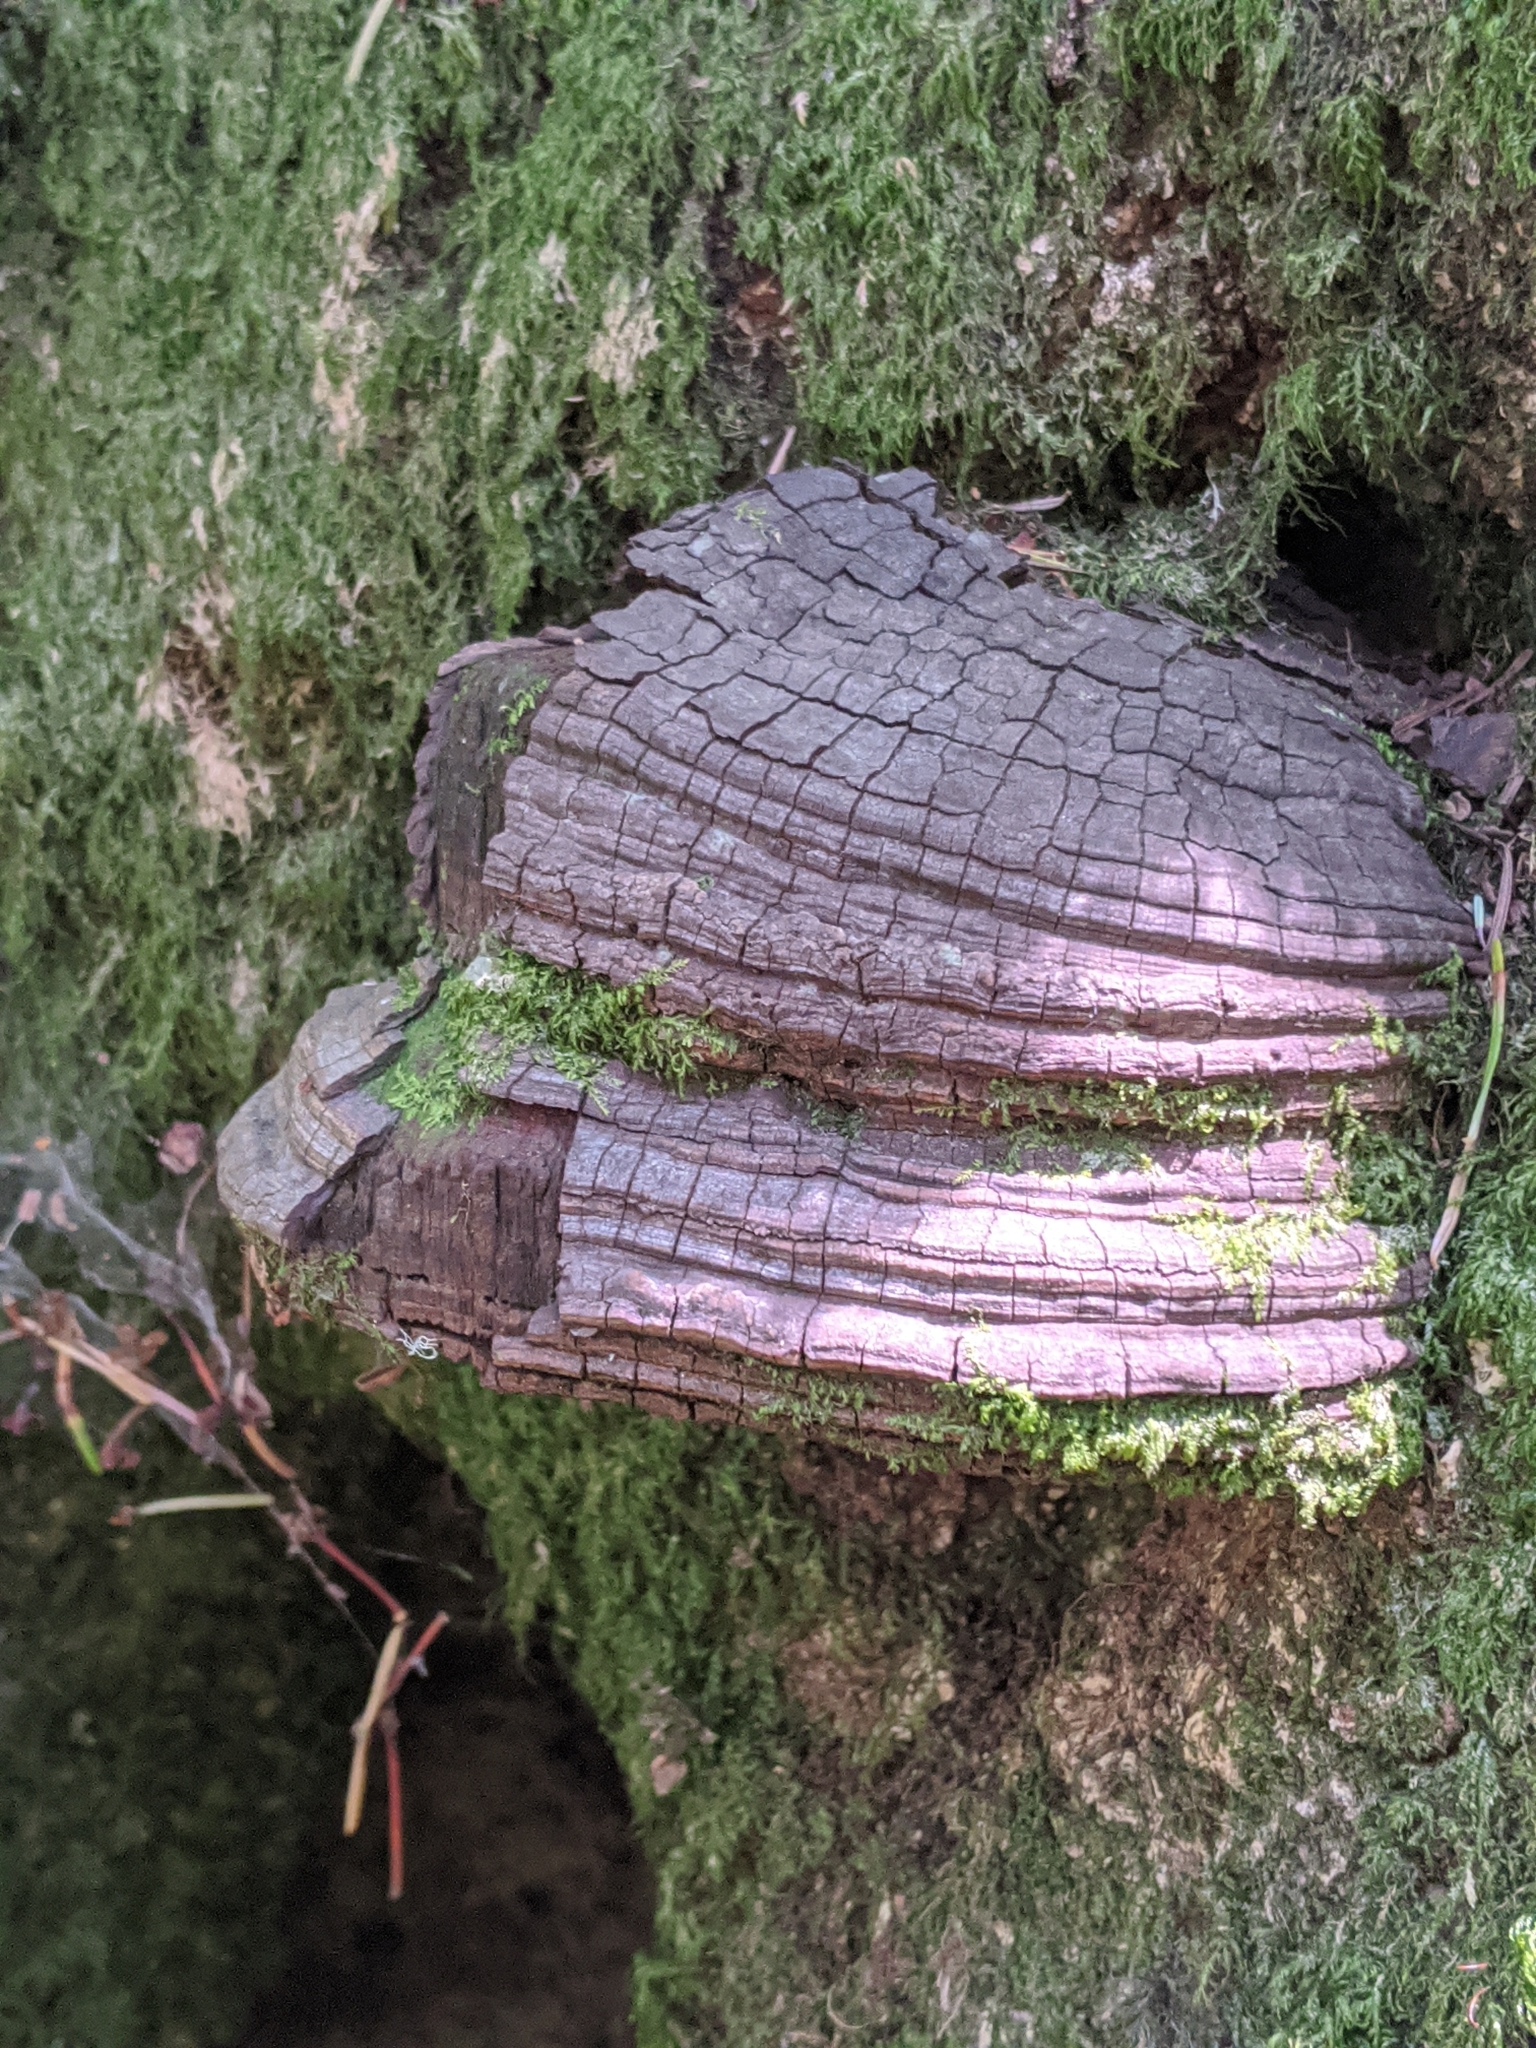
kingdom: Fungi
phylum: Basidiomycota
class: Agaricomycetes
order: Polyporales
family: Polyporaceae
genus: Ganoderma
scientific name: Ganoderma brownii
